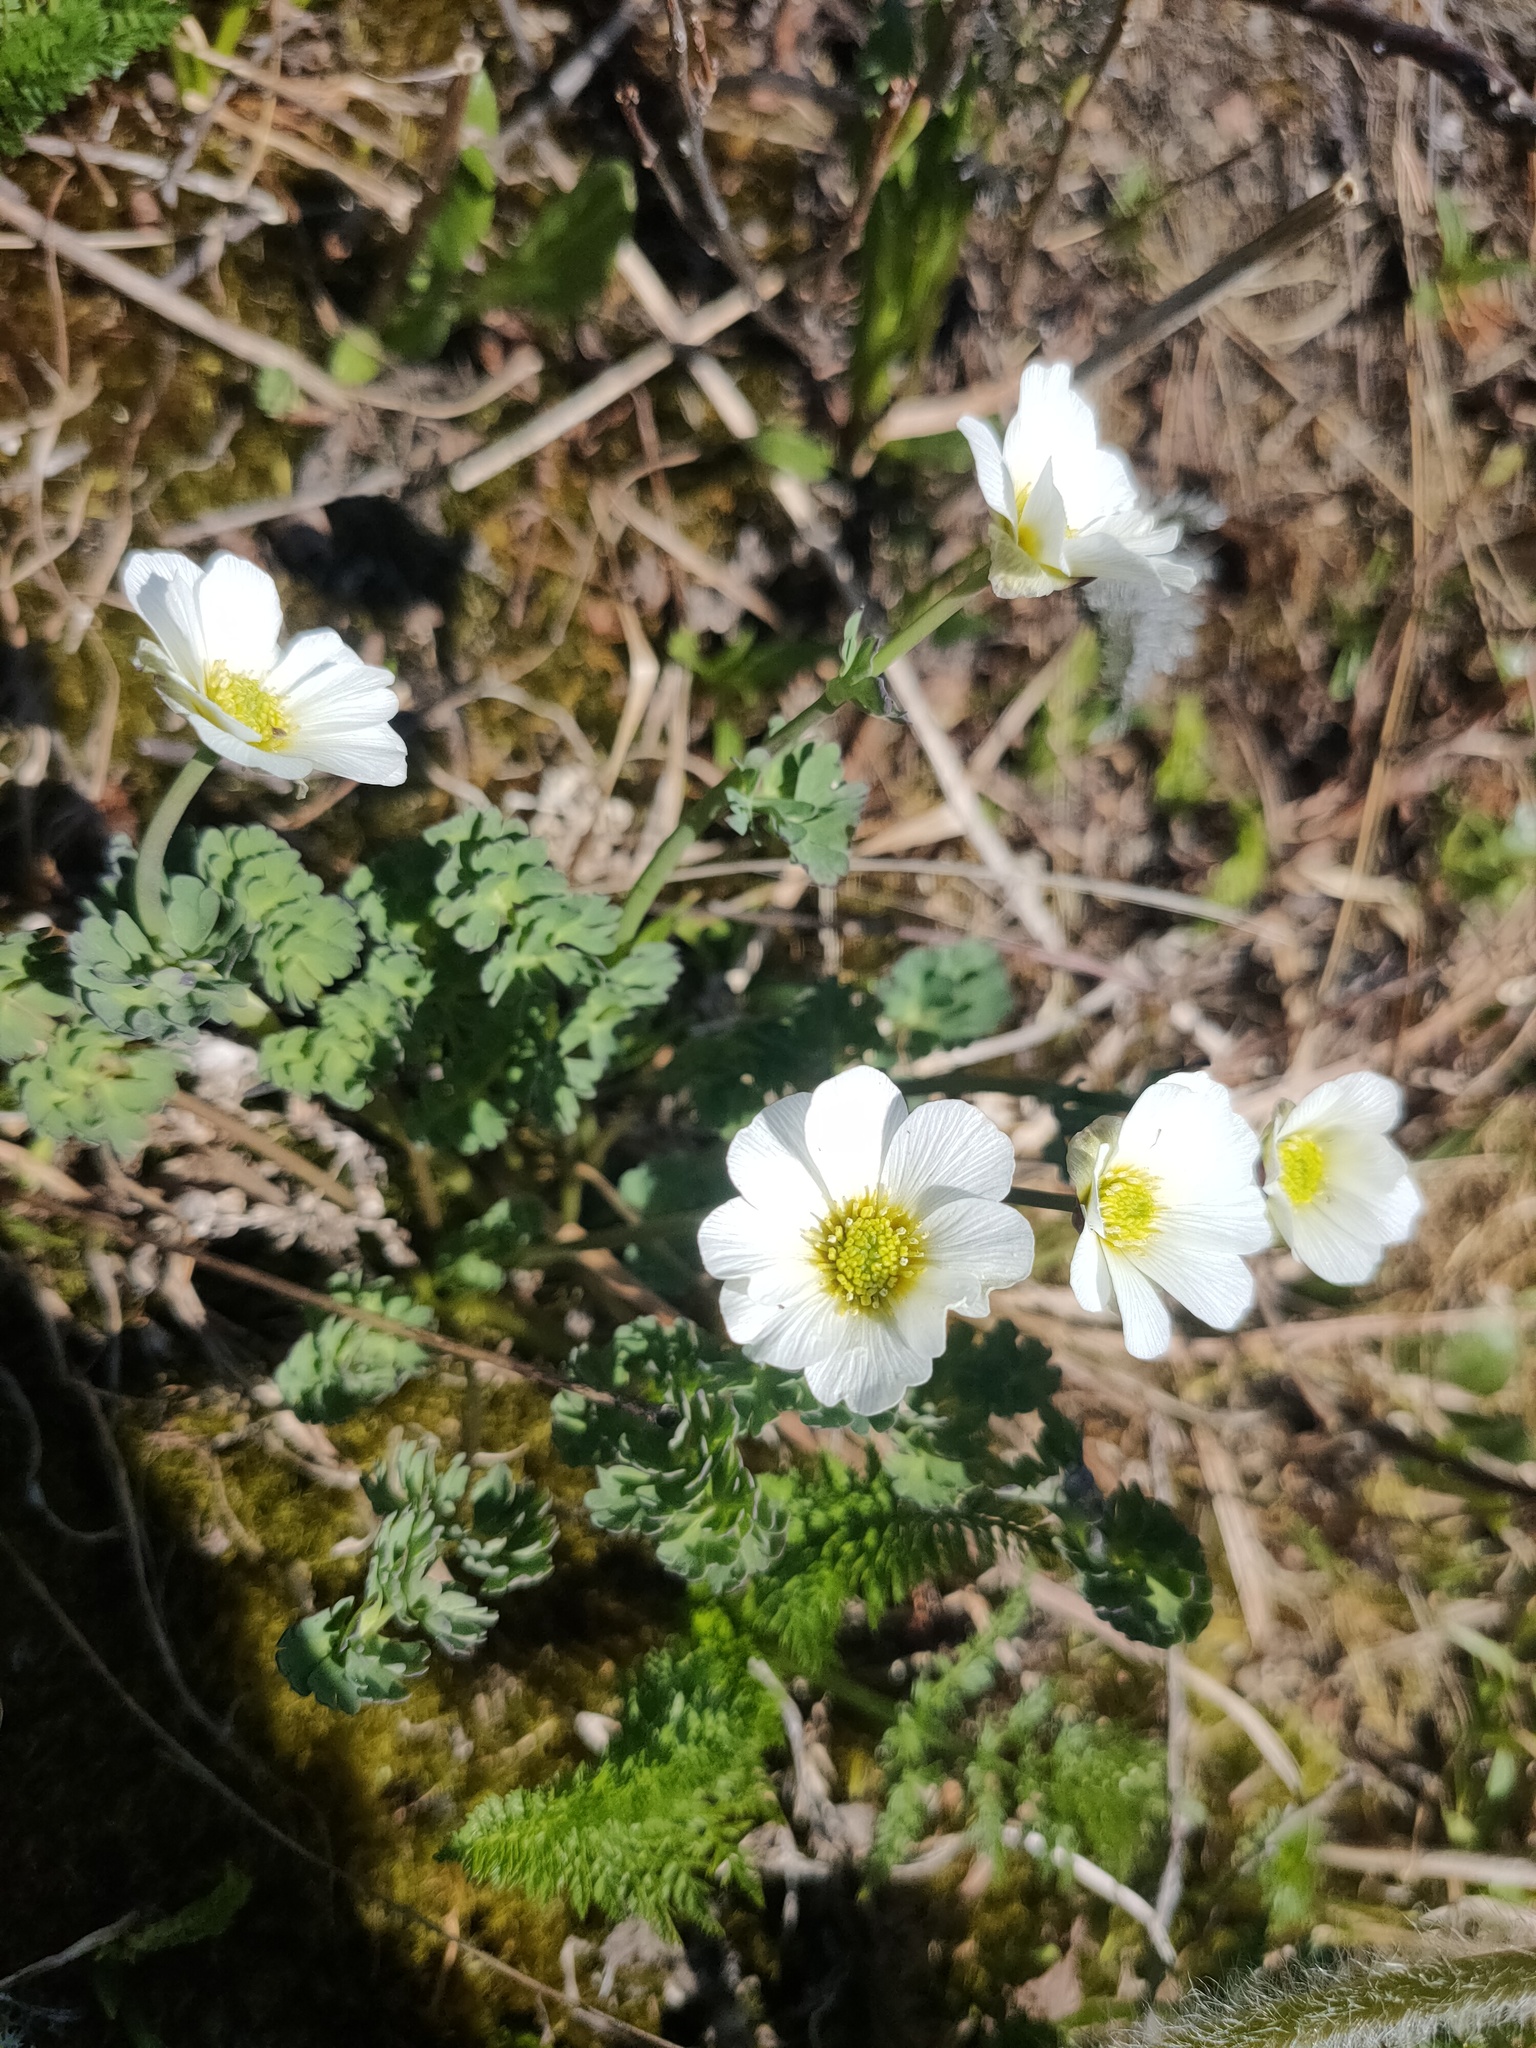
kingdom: Plantae
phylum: Tracheophyta
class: Magnoliopsida
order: Ranunculales
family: Ranunculaceae
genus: Callianthemum
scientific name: Callianthemum sajanense
